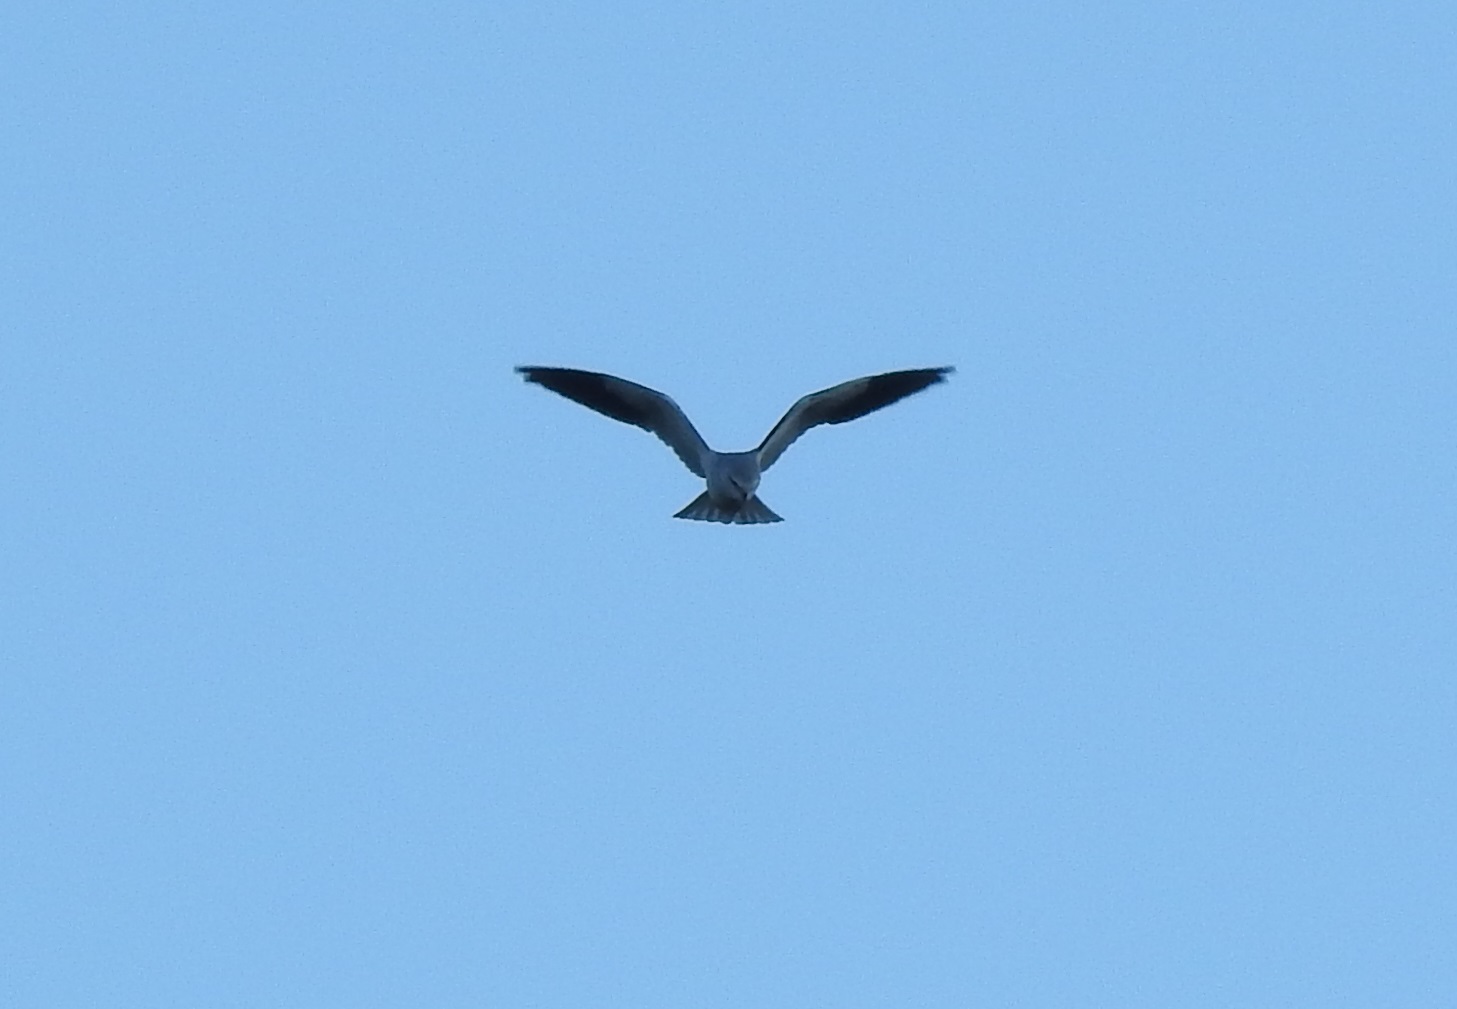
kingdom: Animalia
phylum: Chordata
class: Aves
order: Accipitriformes
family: Accipitridae
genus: Elanus
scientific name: Elanus caeruleus
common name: Black-winged kite
